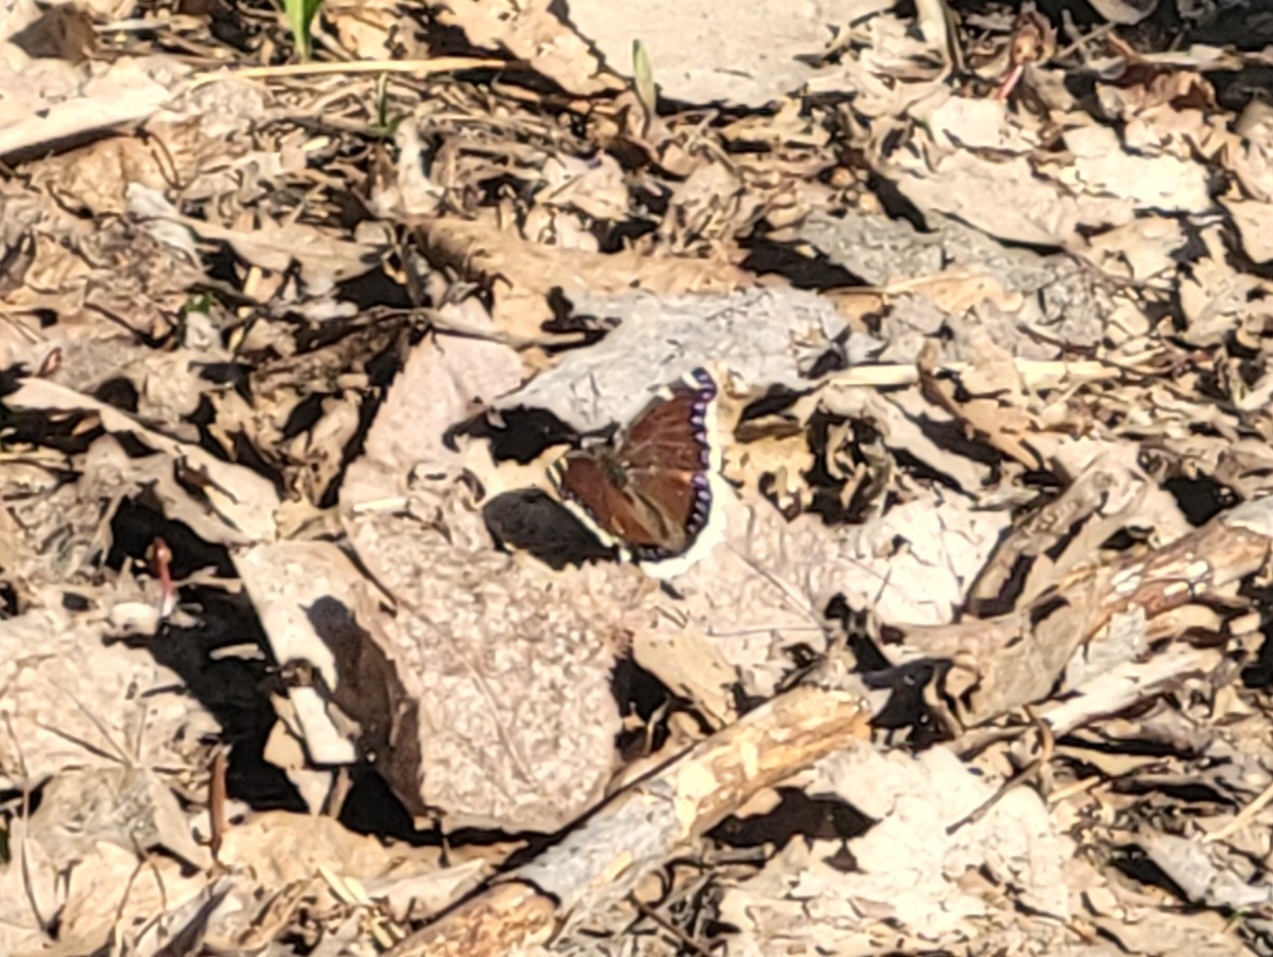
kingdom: Animalia
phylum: Arthropoda
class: Insecta
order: Lepidoptera
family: Nymphalidae
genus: Nymphalis
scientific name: Nymphalis antiopa
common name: Camberwell beauty
